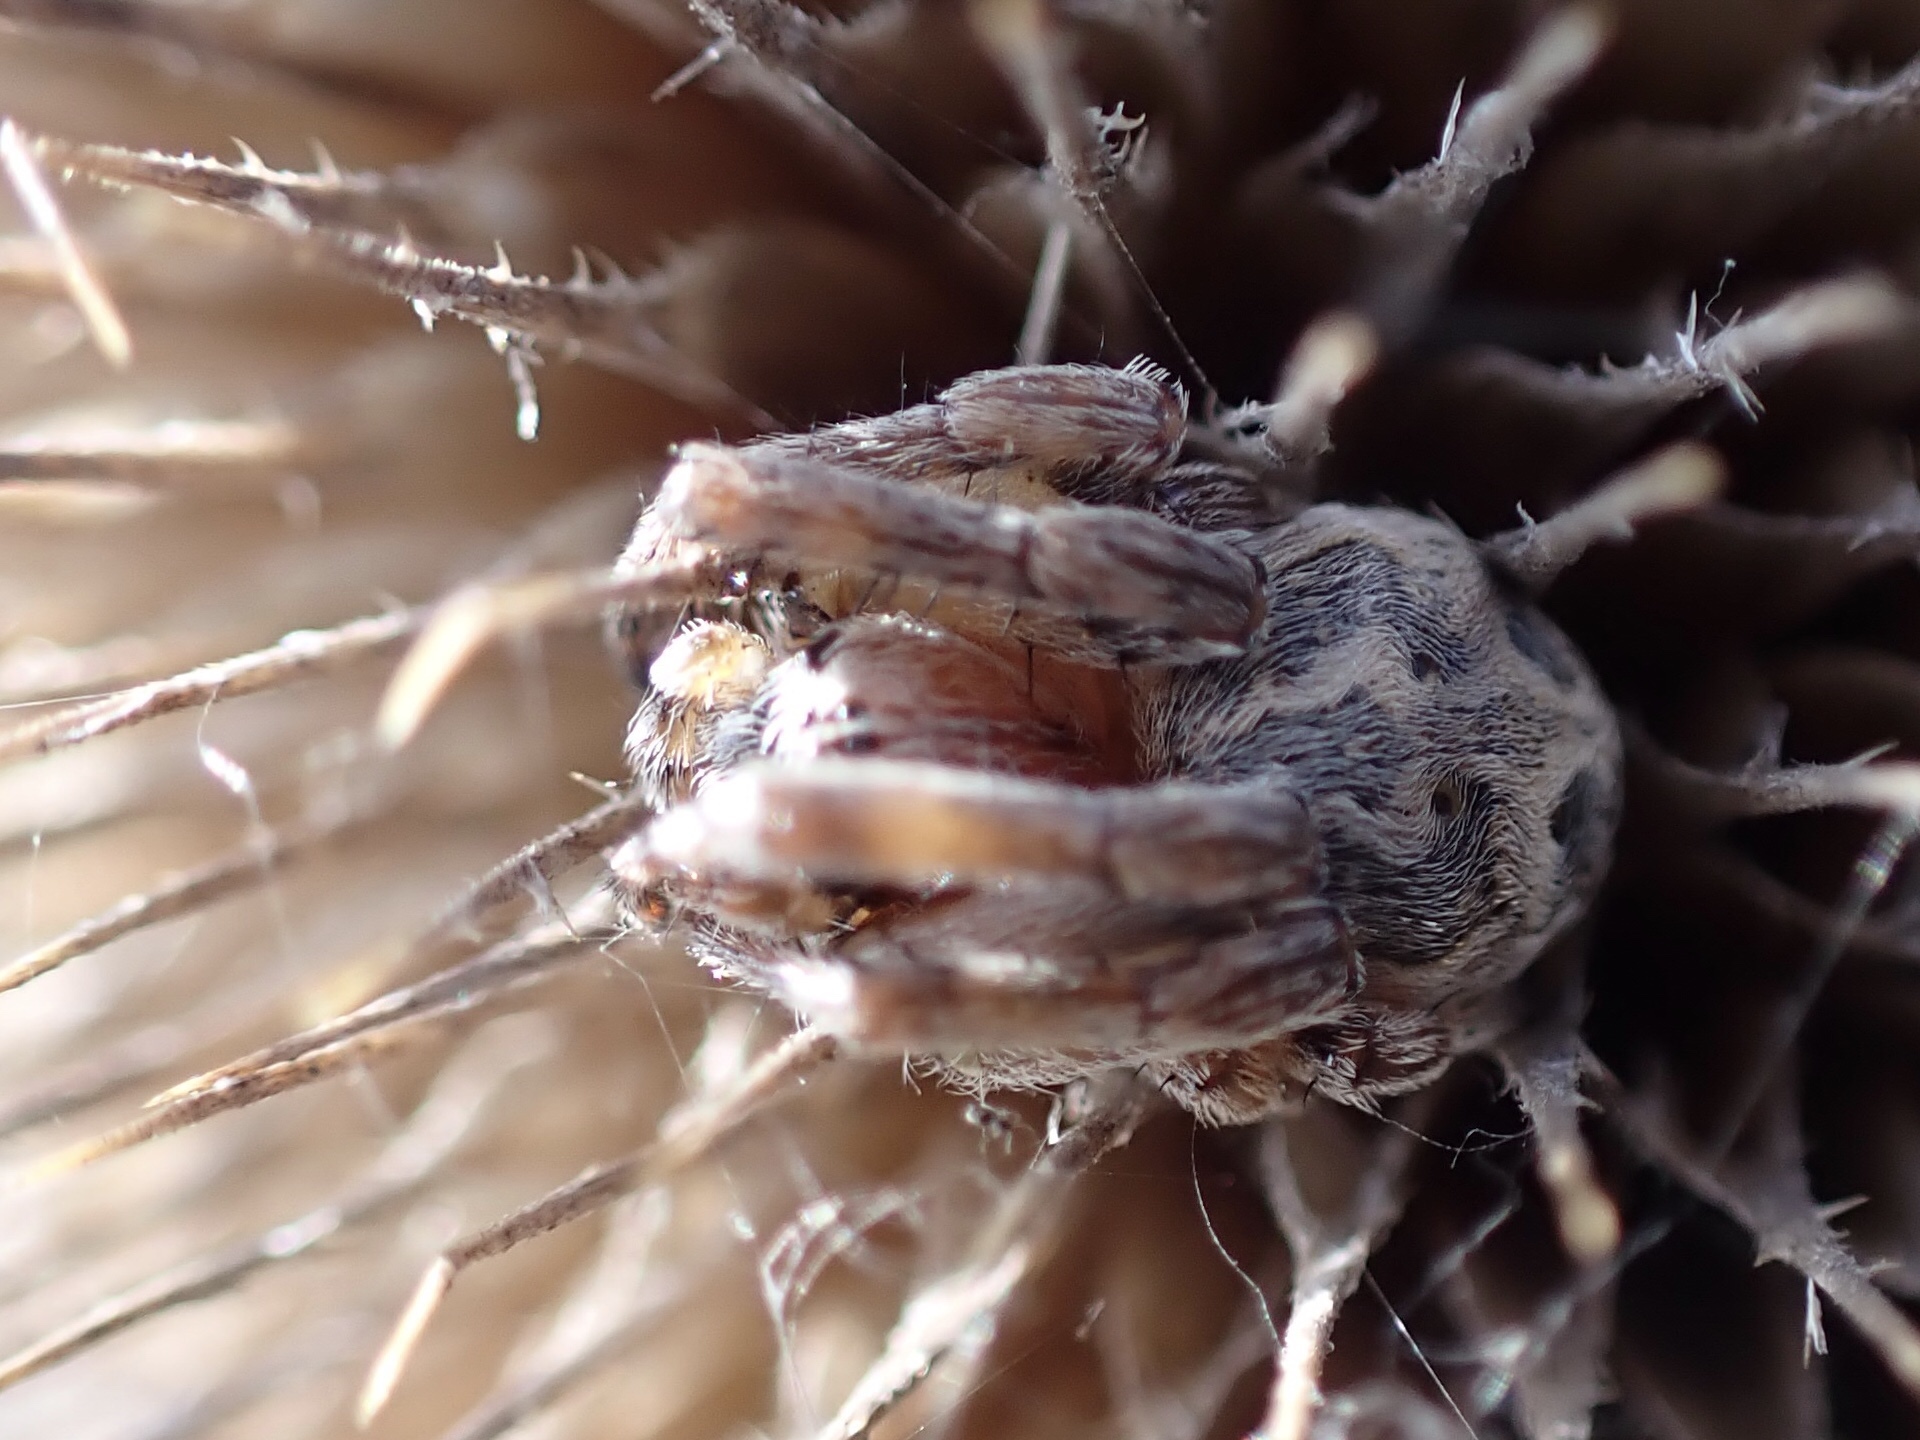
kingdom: Animalia
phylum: Arthropoda
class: Arachnida
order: Araneae
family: Araneidae
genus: Larinioides
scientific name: Larinioides cornutus
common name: Furrow orbweaver
